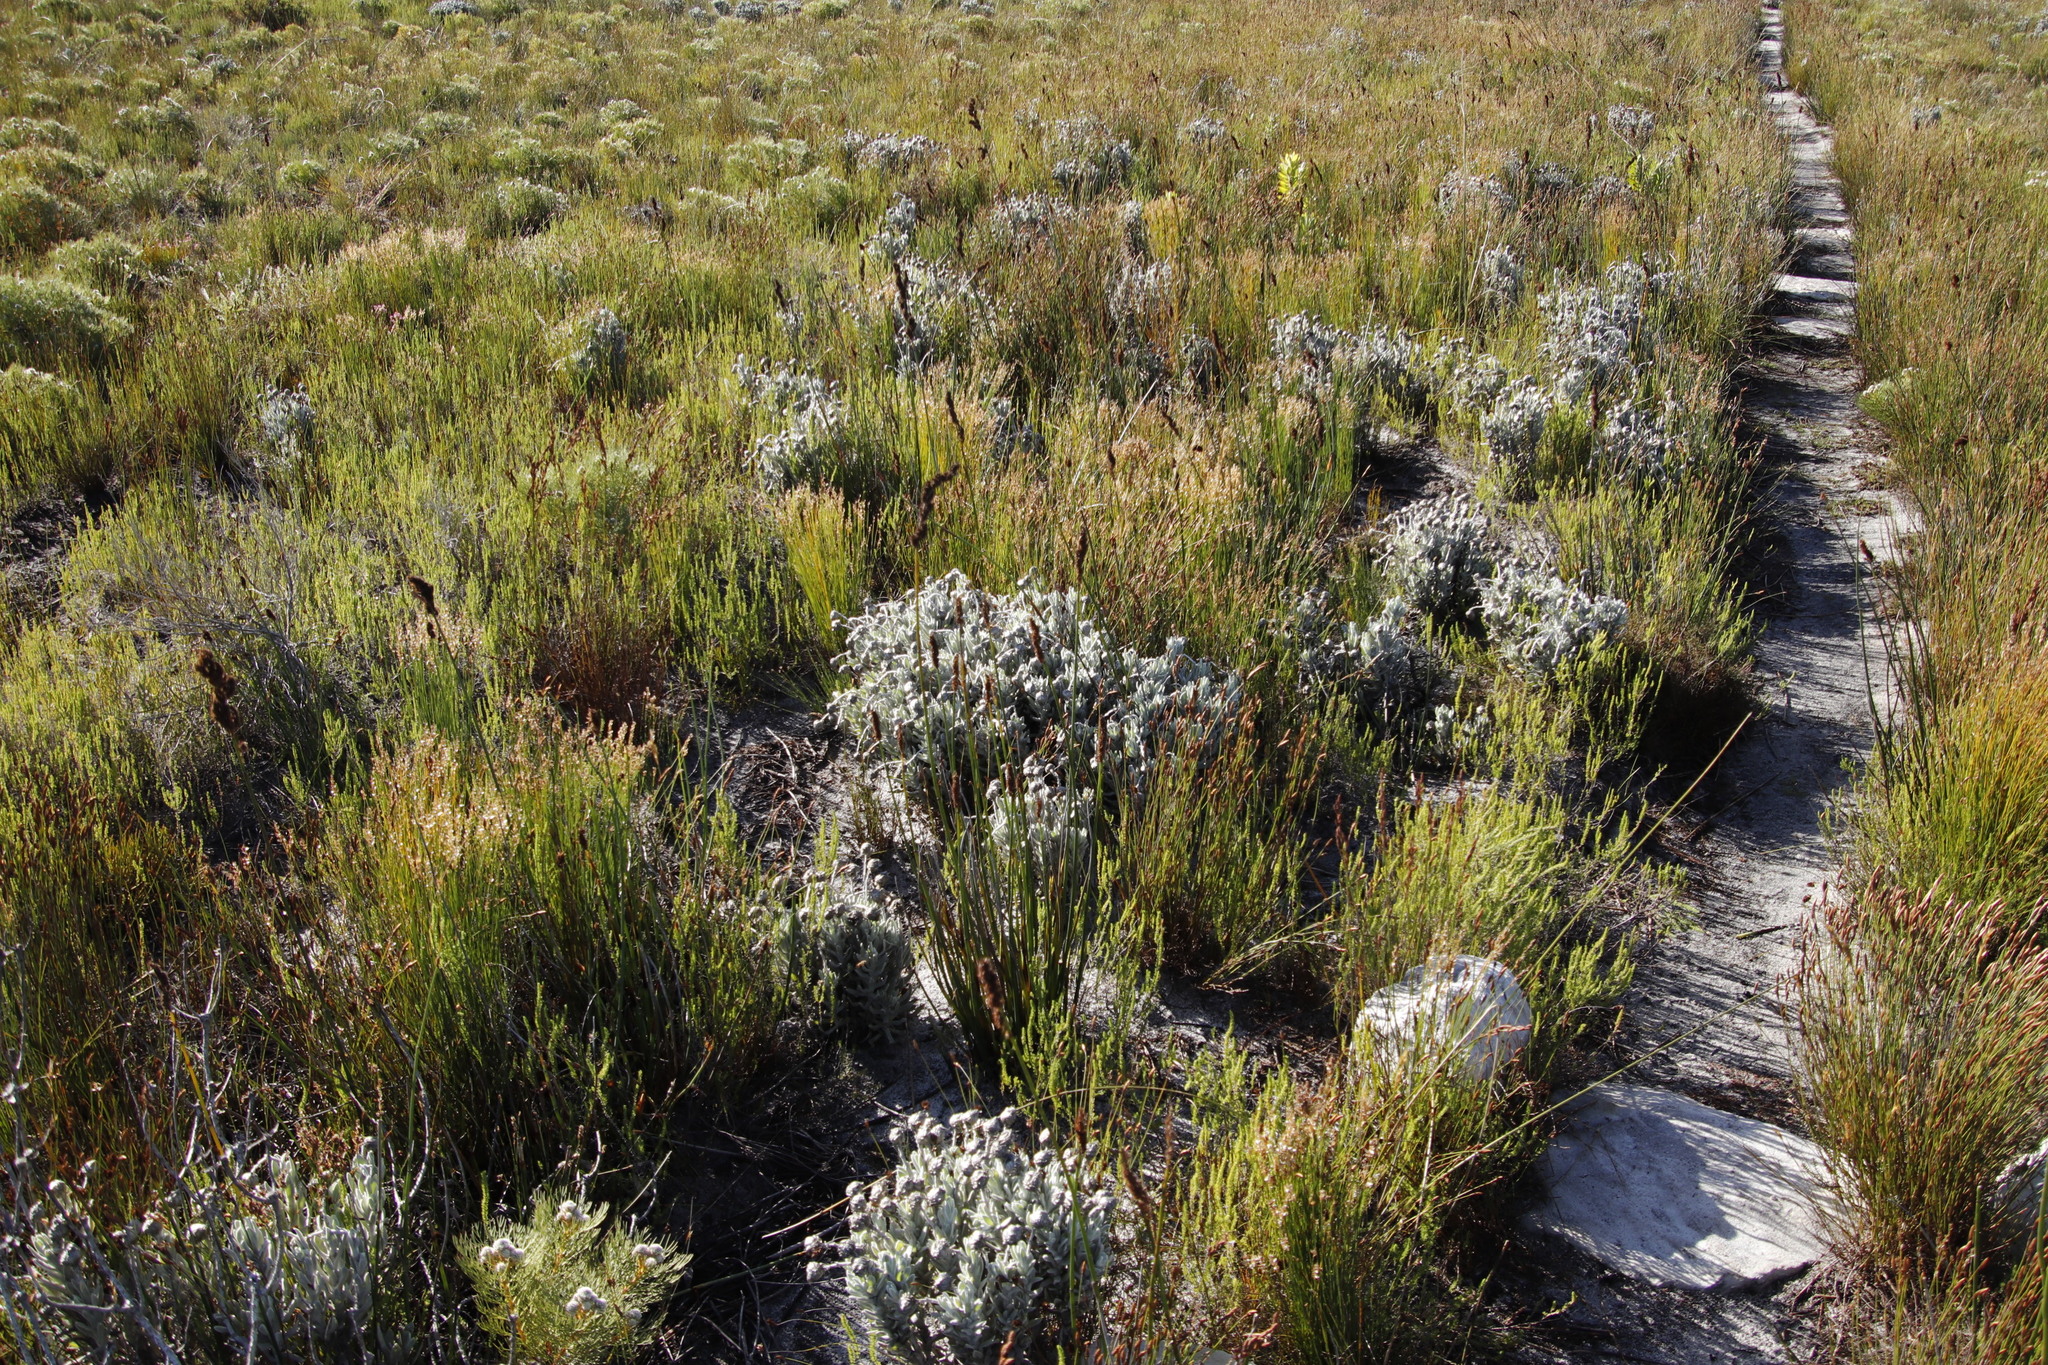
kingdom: Plantae
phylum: Tracheophyta
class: Magnoliopsida
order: Asterales
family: Asteraceae
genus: Syncarpha
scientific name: Syncarpha vestita
